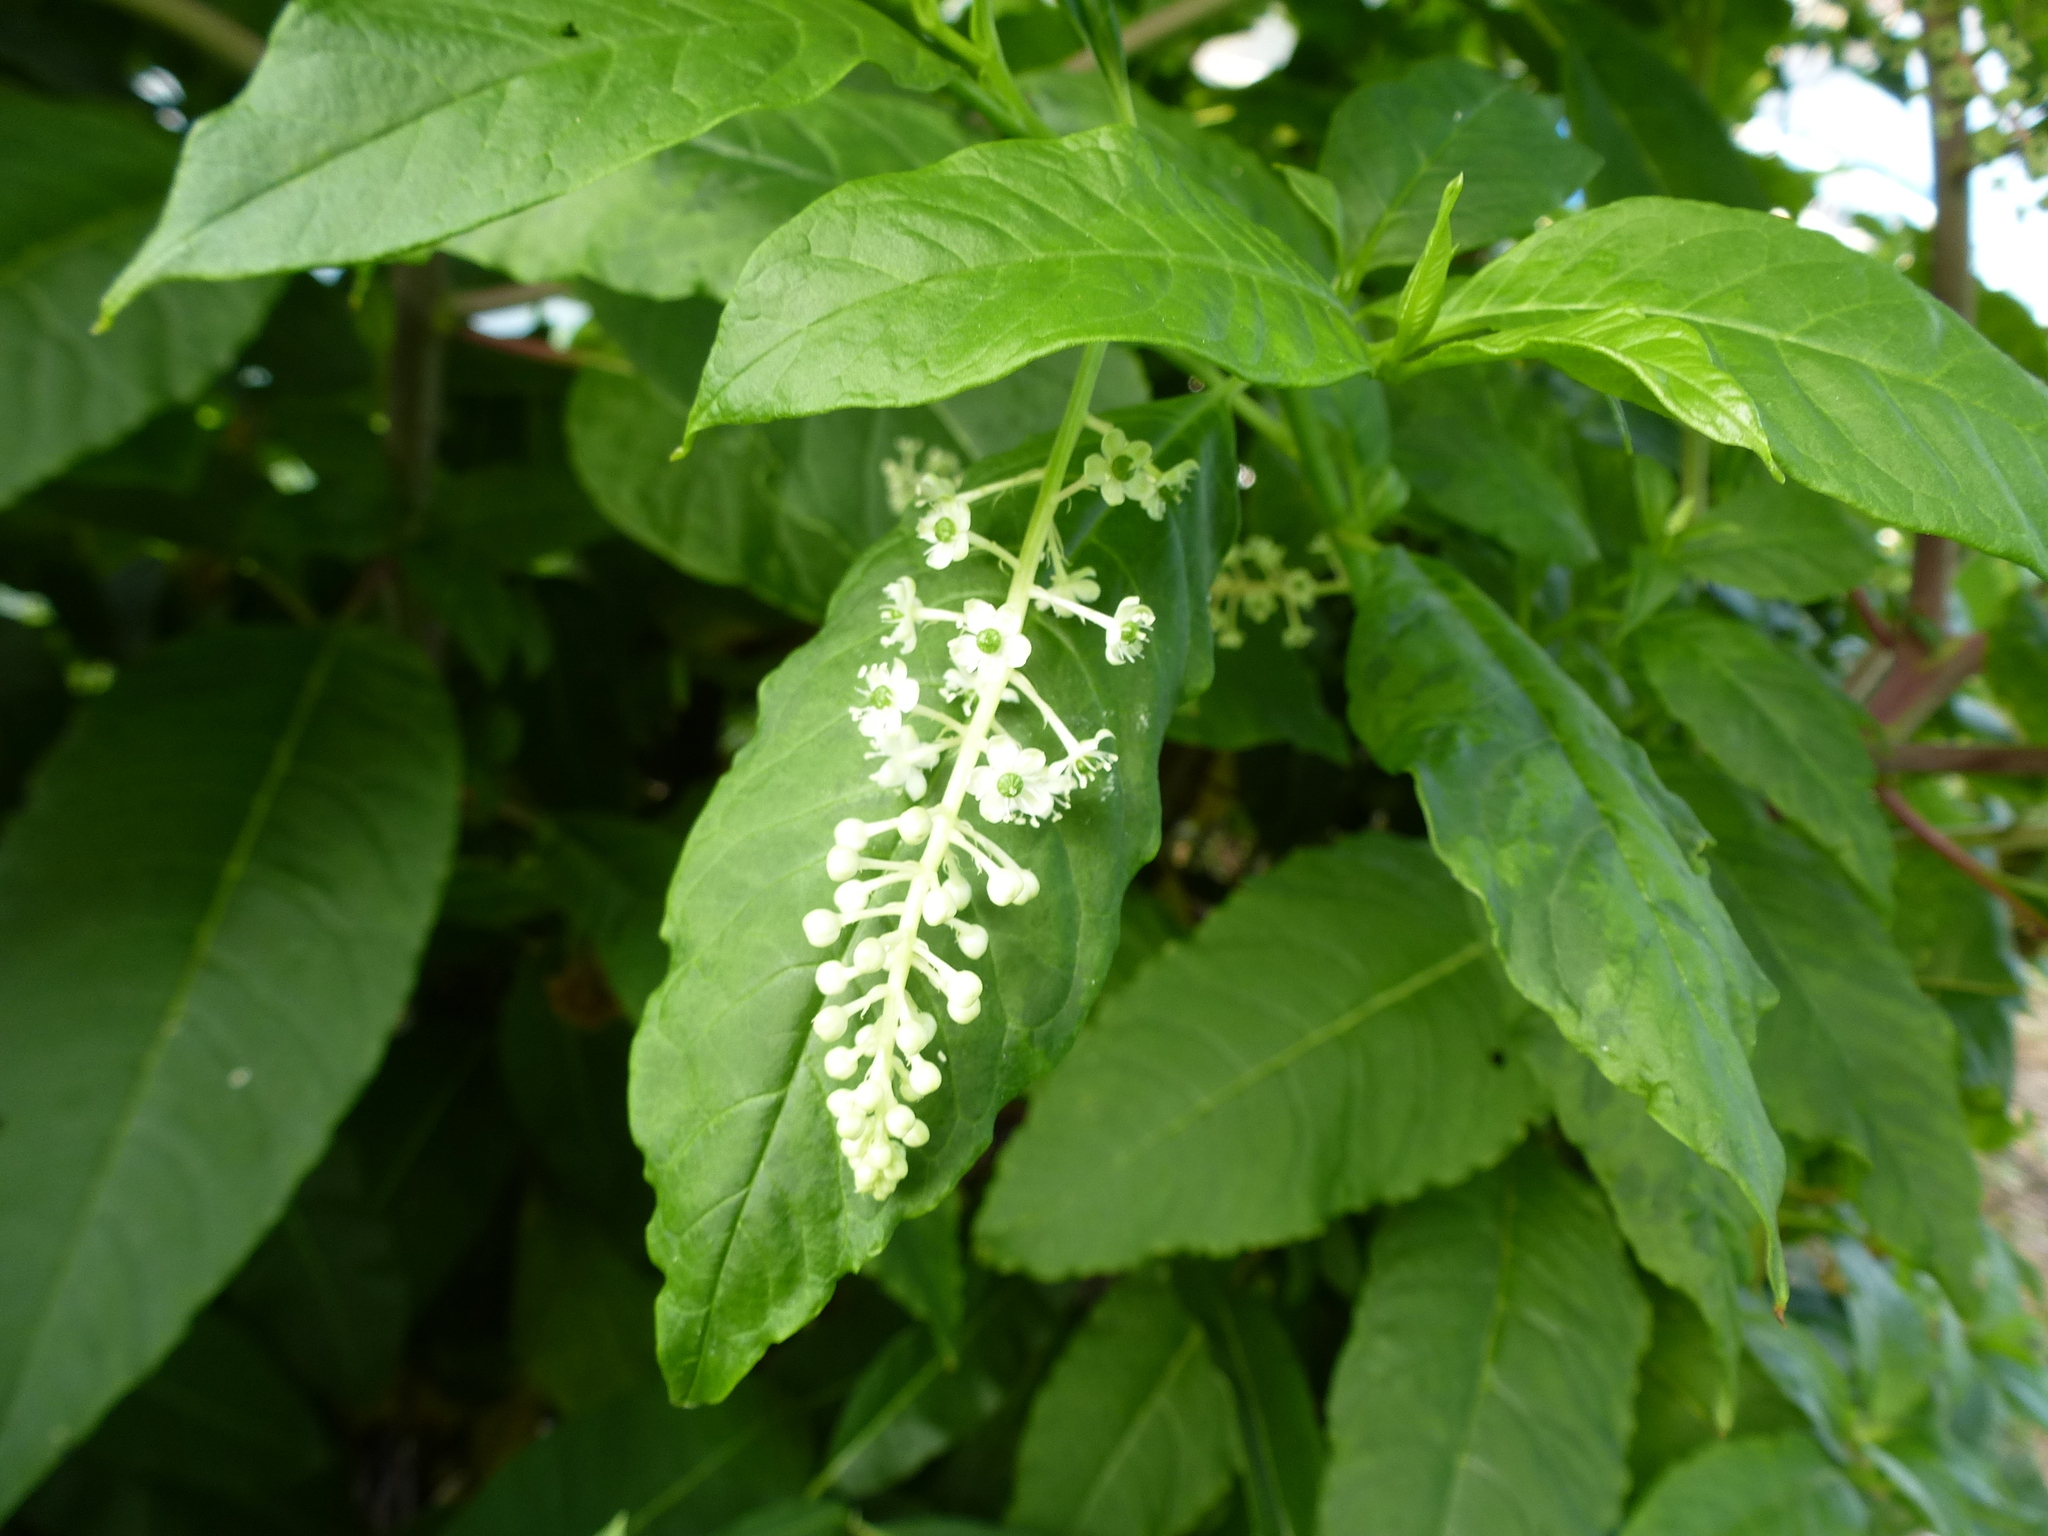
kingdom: Plantae
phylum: Tracheophyta
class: Magnoliopsida
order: Caryophyllales
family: Phytolaccaceae
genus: Phytolacca
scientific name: Phytolacca americana
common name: American pokeweed
